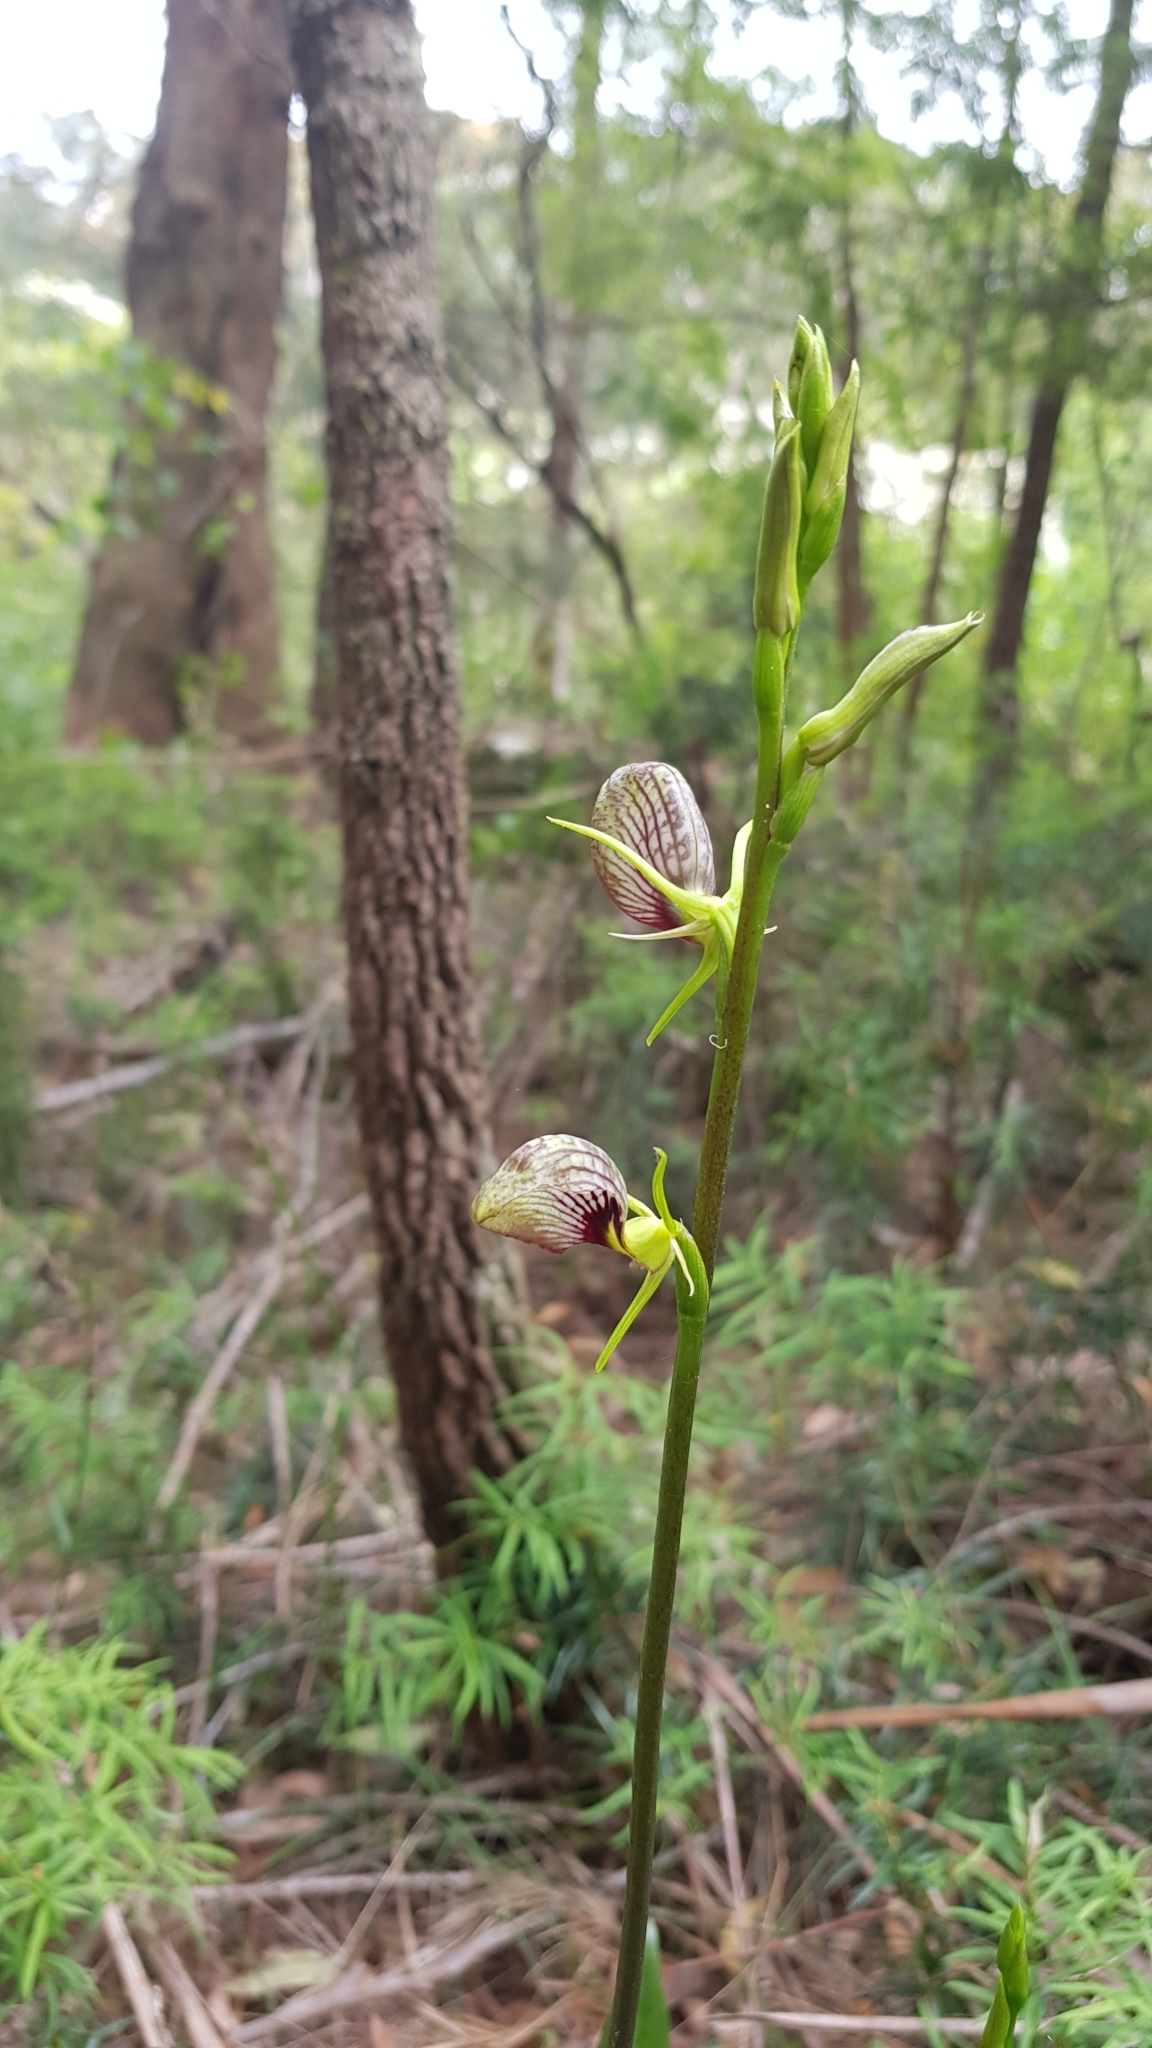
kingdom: Plantae
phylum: Tracheophyta
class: Liliopsida
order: Asparagales
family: Orchidaceae
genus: Cryptostylis
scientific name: Cryptostylis erecta
